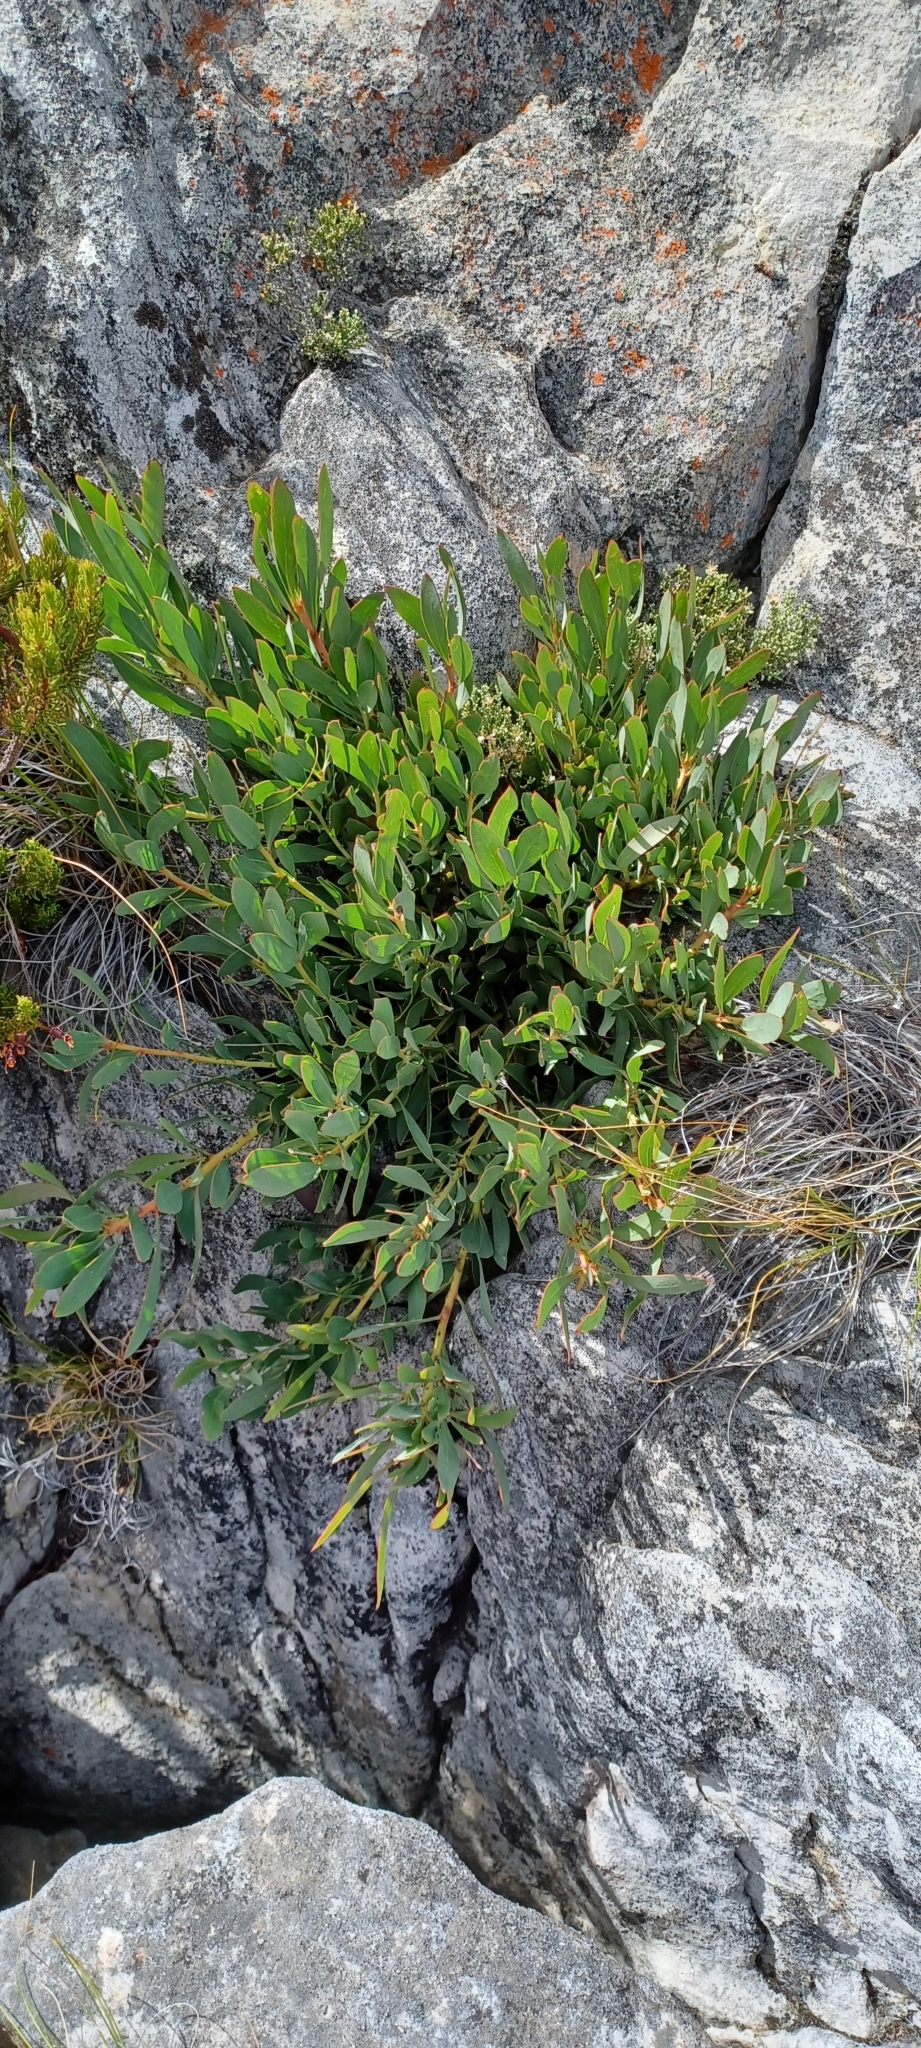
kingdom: Plantae
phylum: Tracheophyta
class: Magnoliopsida
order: Proteales
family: Proteaceae
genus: Protea
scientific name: Protea effusa
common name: Scarlet sugarbush
